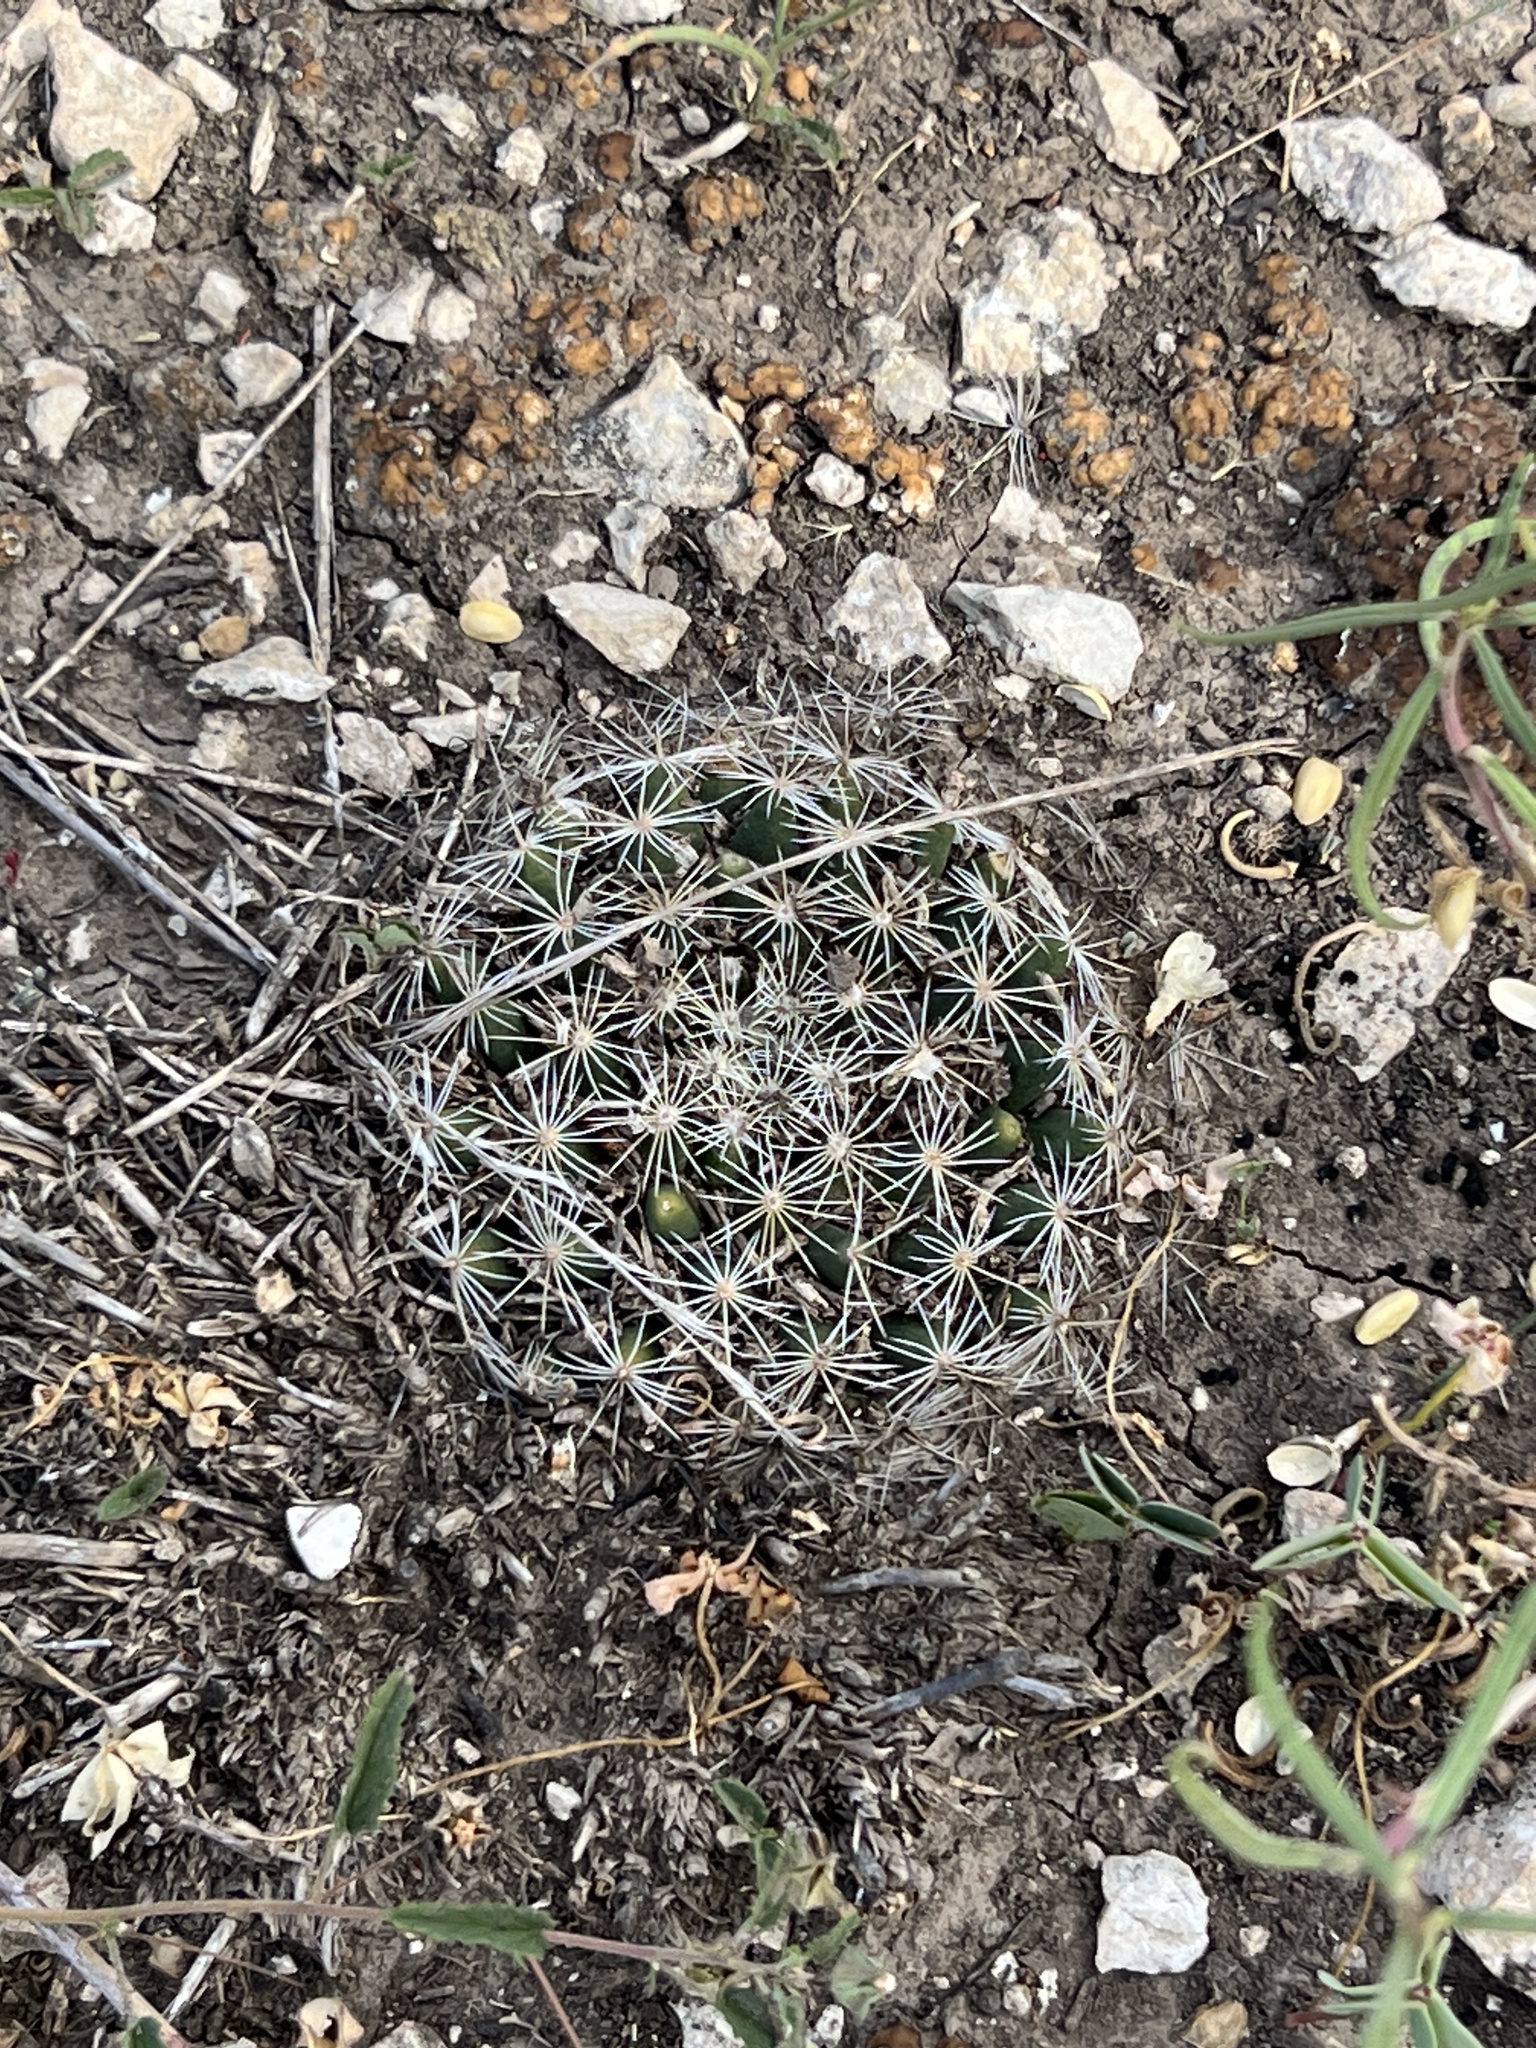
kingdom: Plantae
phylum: Tracheophyta
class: Magnoliopsida
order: Caryophyllales
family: Cactaceae
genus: Mammillaria
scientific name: Mammillaria heyderi
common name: Little nipple cactus
